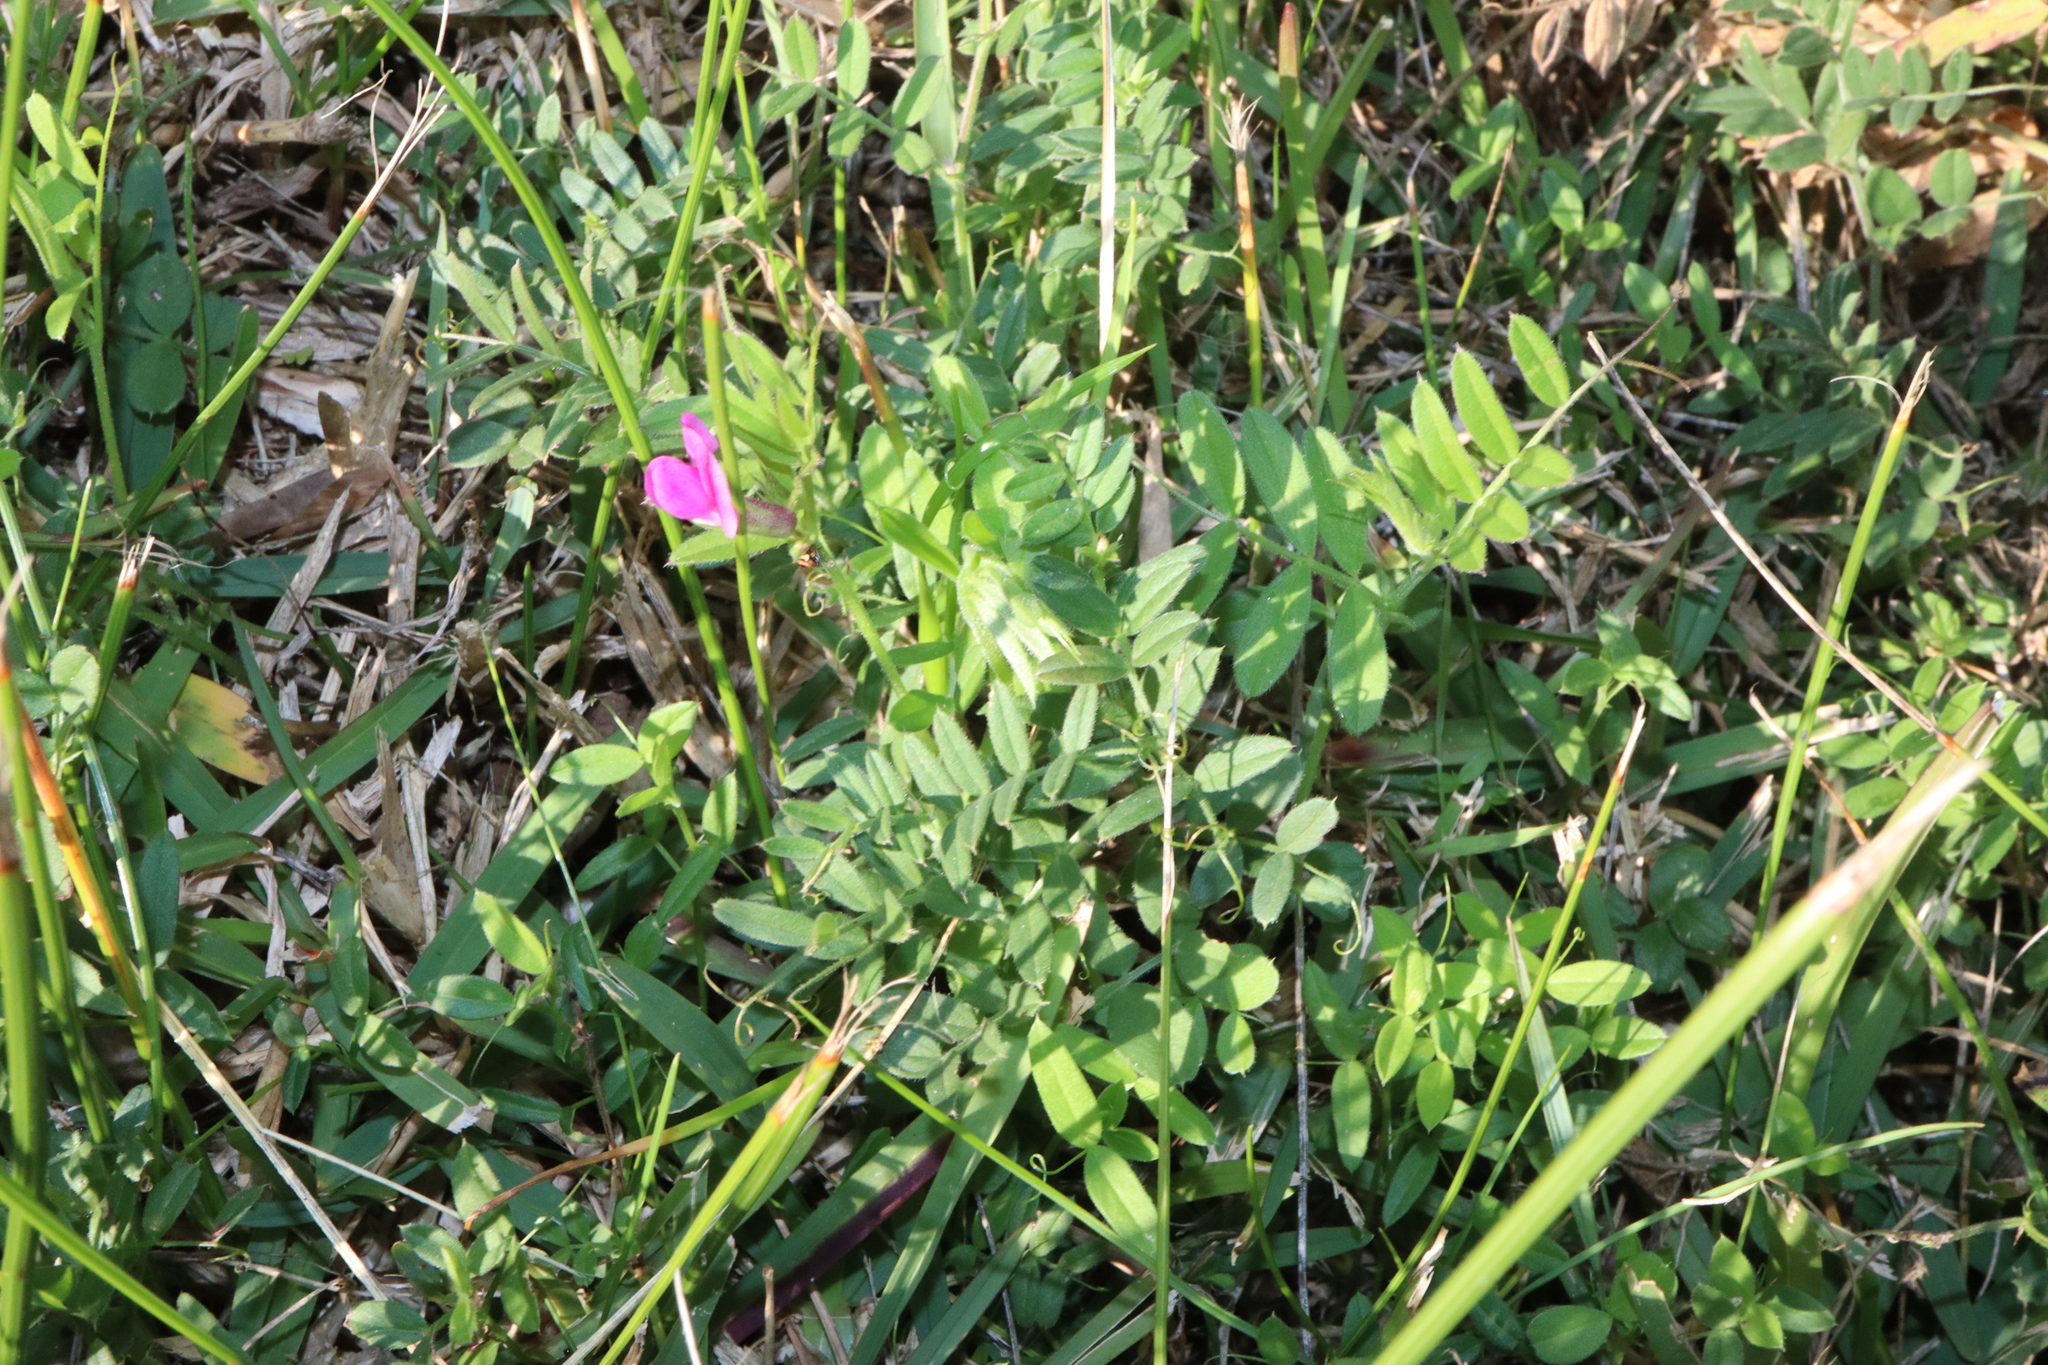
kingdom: Plantae
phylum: Tracheophyta
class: Magnoliopsida
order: Fabales
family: Fabaceae
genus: Vicia
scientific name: Vicia sativa
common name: Garden vetch
